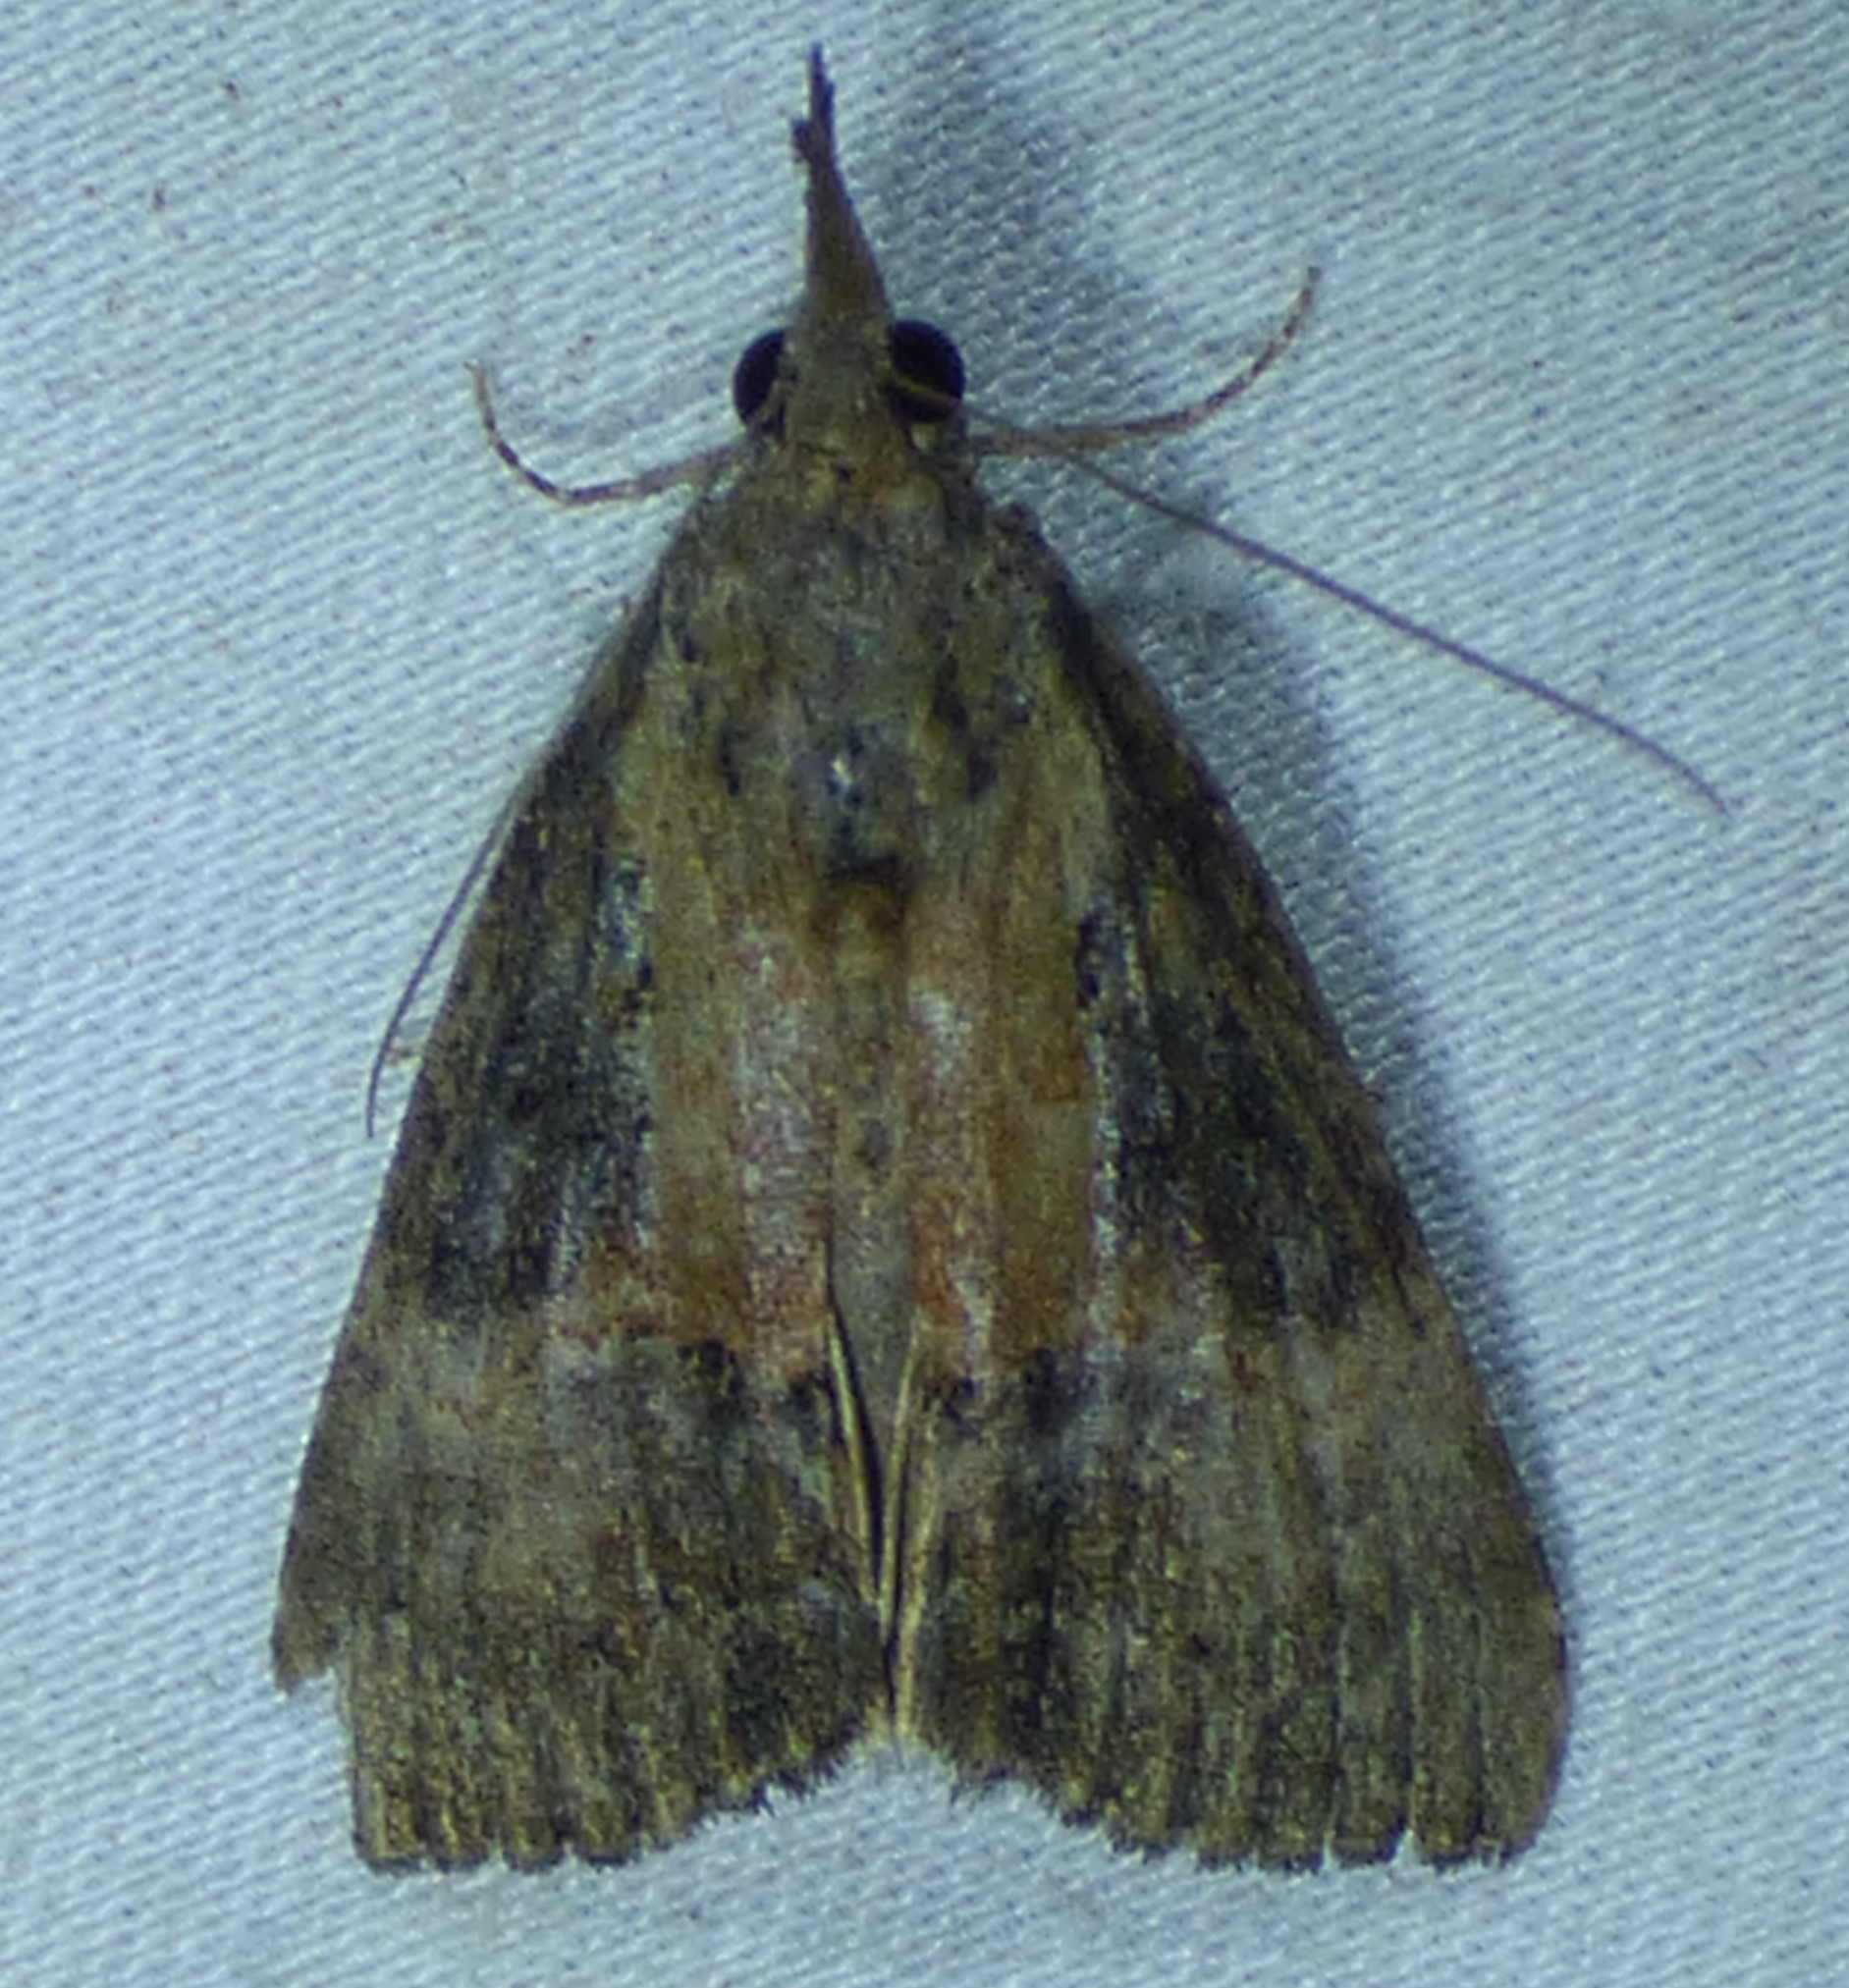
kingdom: Animalia
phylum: Arthropoda
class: Insecta
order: Lepidoptera
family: Erebidae
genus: Hypena
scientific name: Hypena scabra
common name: Green cloverworm
